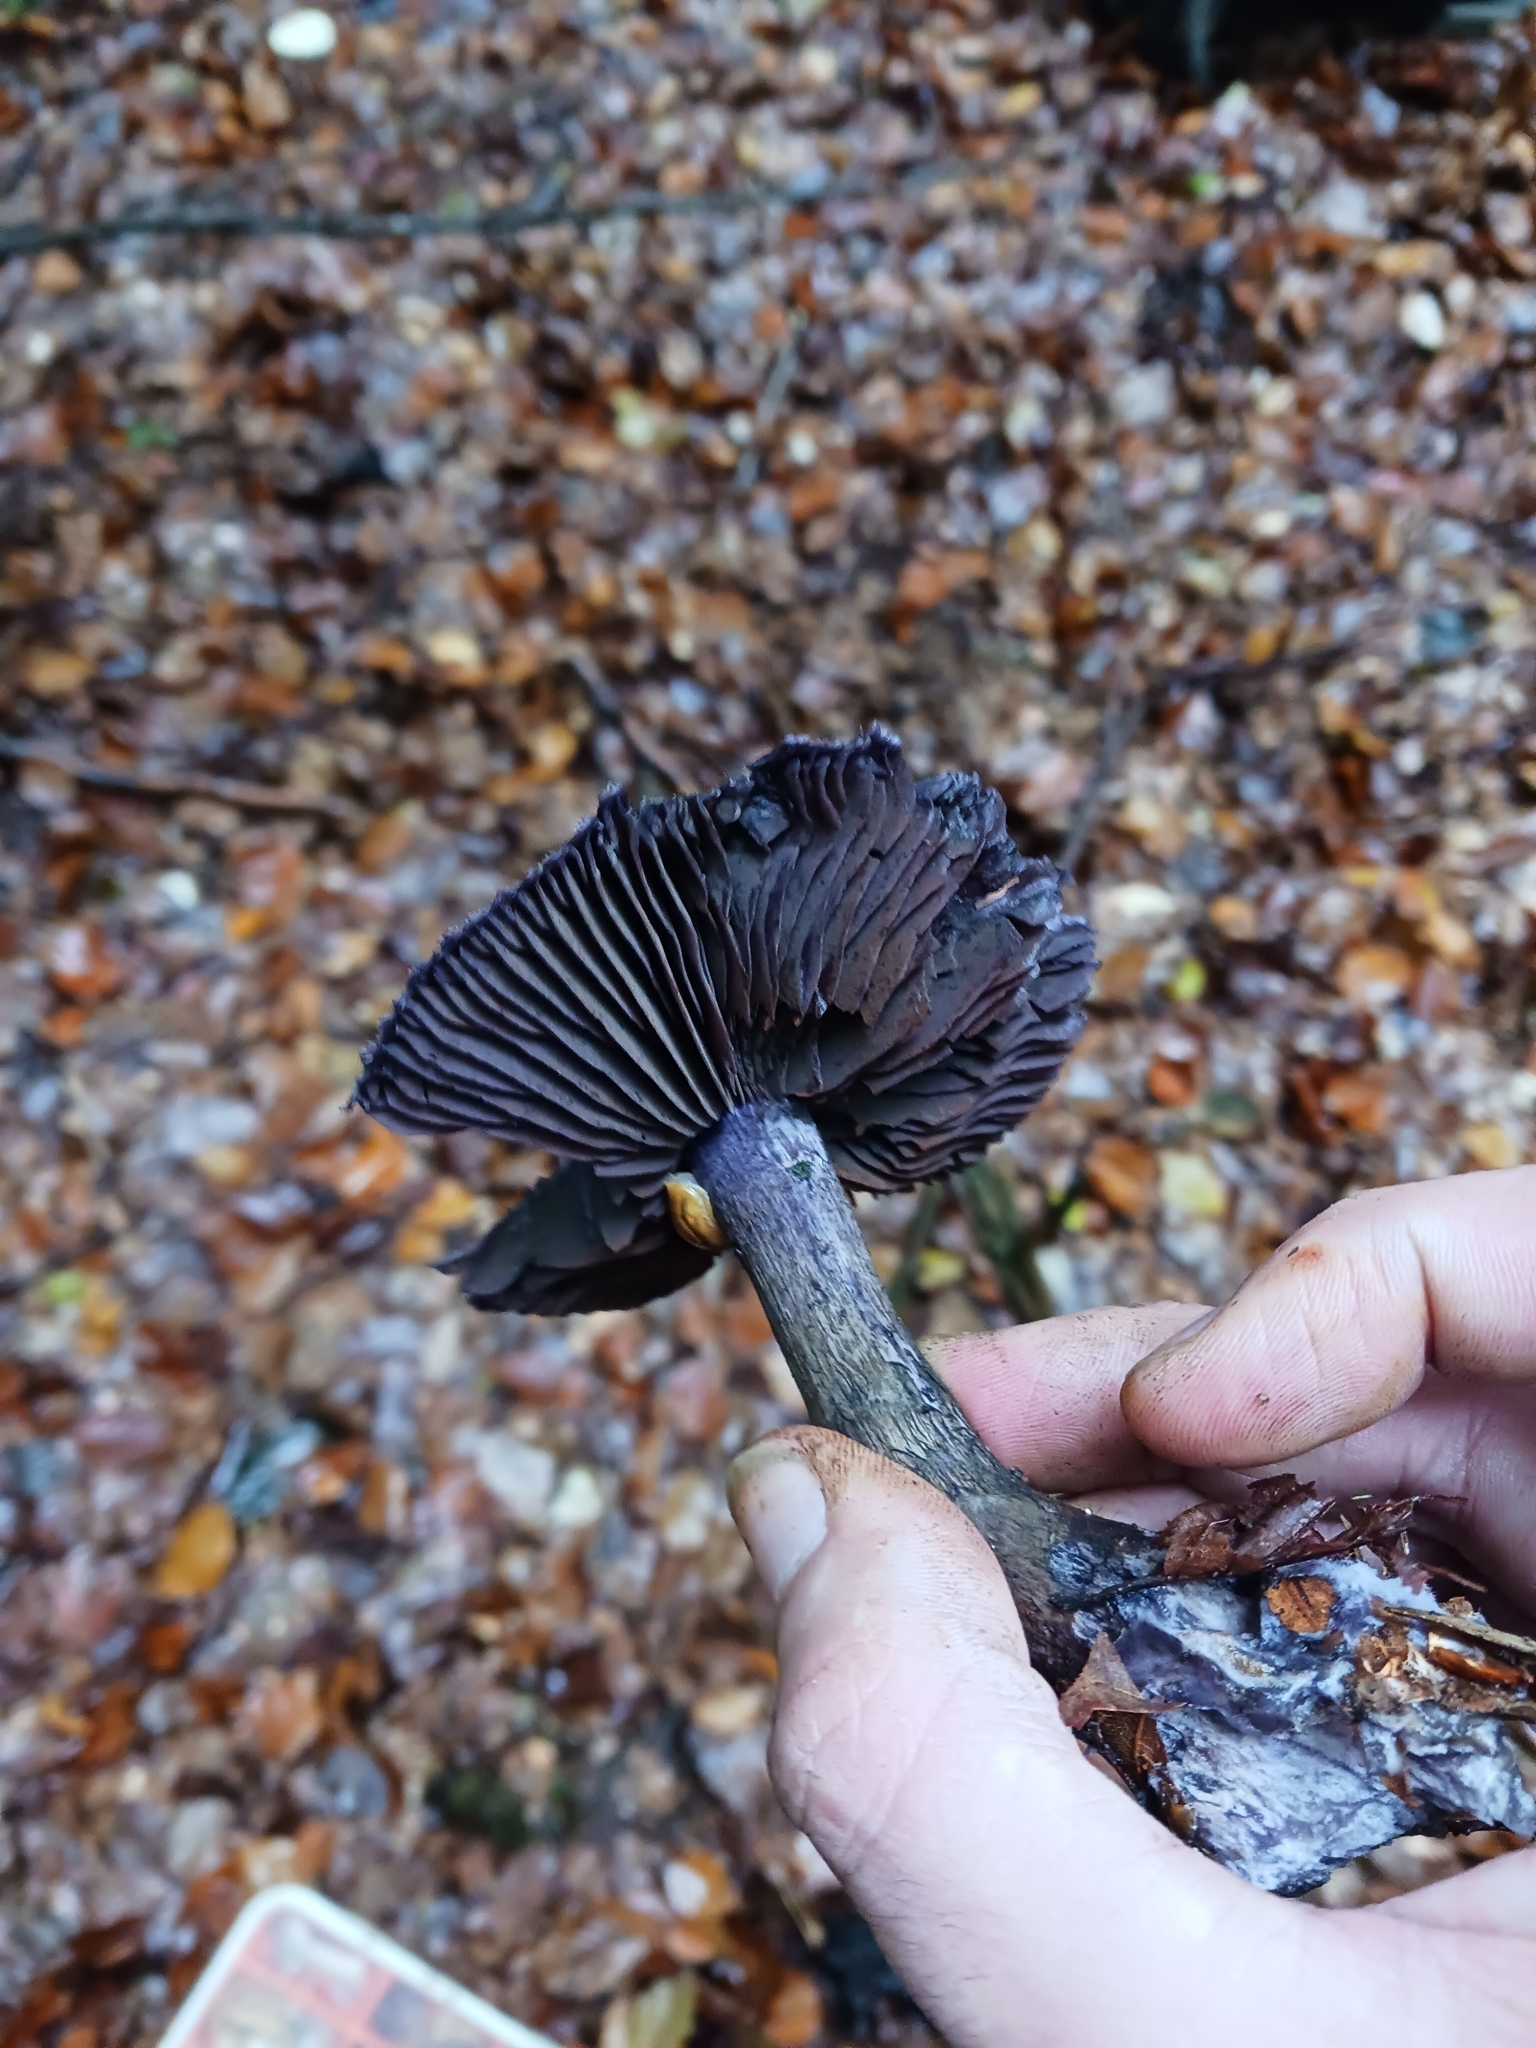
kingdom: Fungi
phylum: Basidiomycota
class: Agaricomycetes
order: Agaricales
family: Cortinariaceae
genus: Cortinarius
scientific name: Cortinarius violaceus
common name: Violet webcap
